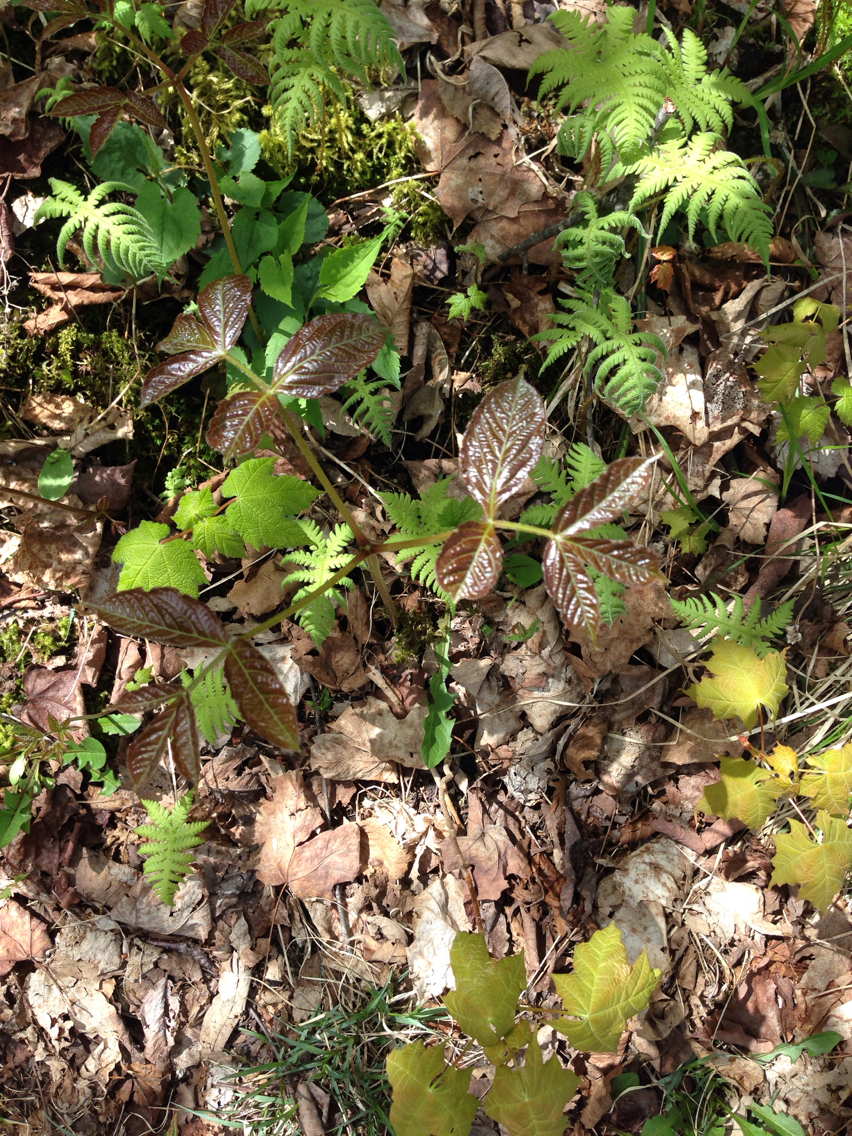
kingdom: Plantae
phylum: Tracheophyta
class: Magnoliopsida
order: Apiales
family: Araliaceae
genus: Aralia
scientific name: Aralia nudicaulis
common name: Wild sarsaparilla
